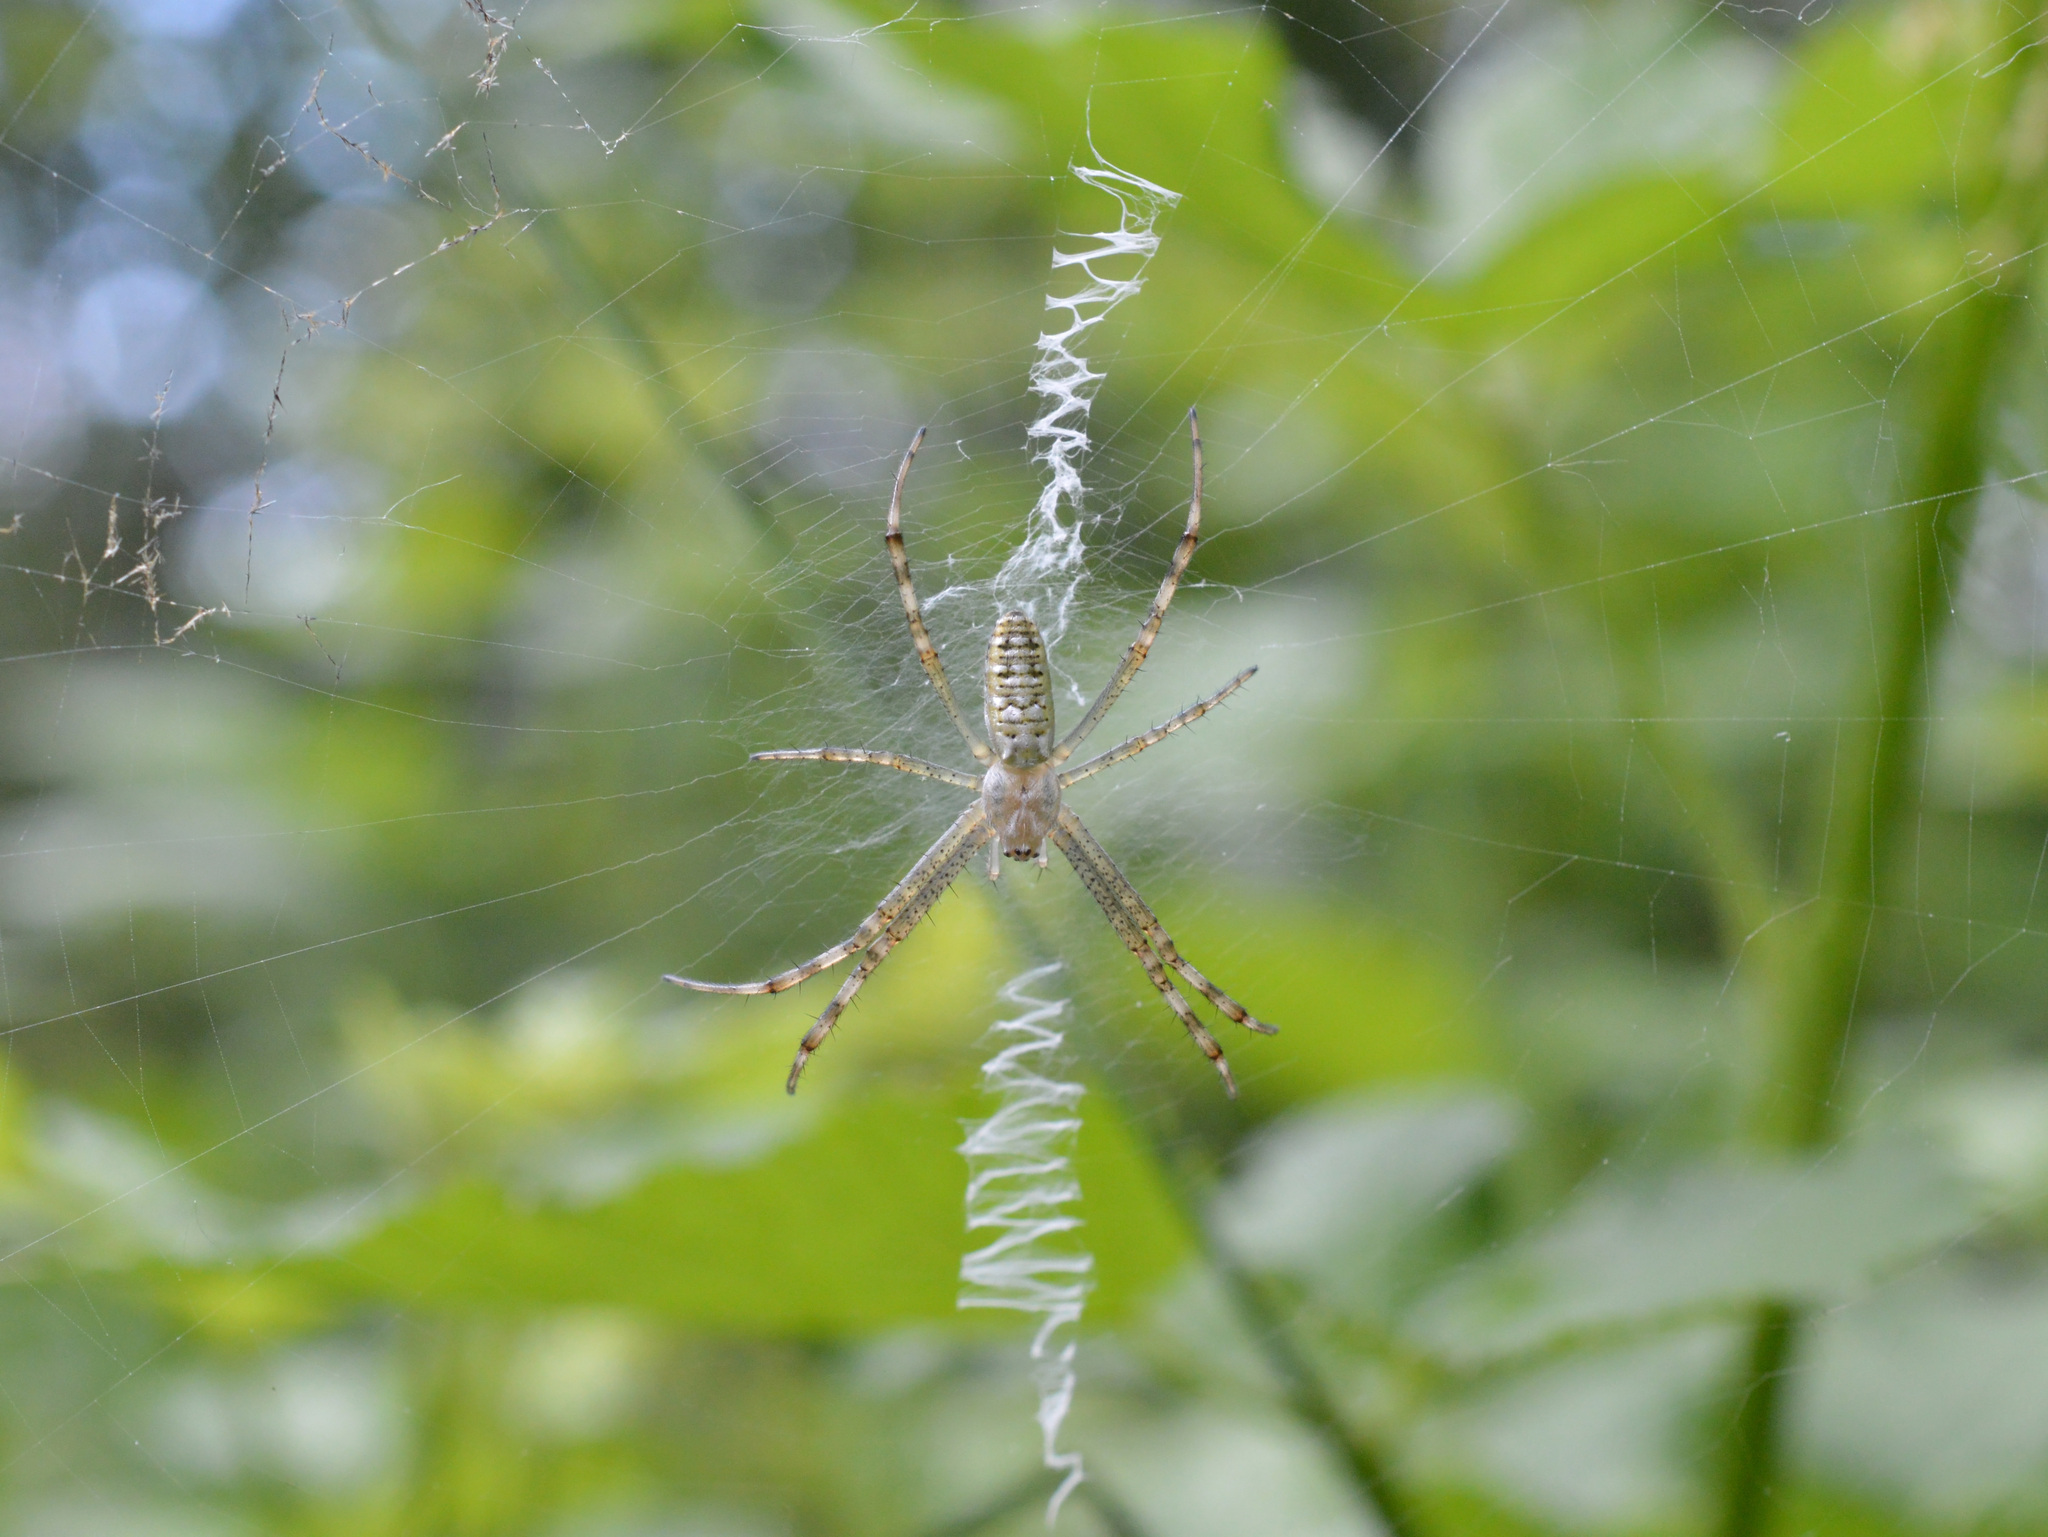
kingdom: Animalia
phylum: Arthropoda
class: Arachnida
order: Araneae
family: Araneidae
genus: Argiope
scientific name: Argiope bruennichi
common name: Wasp spider
